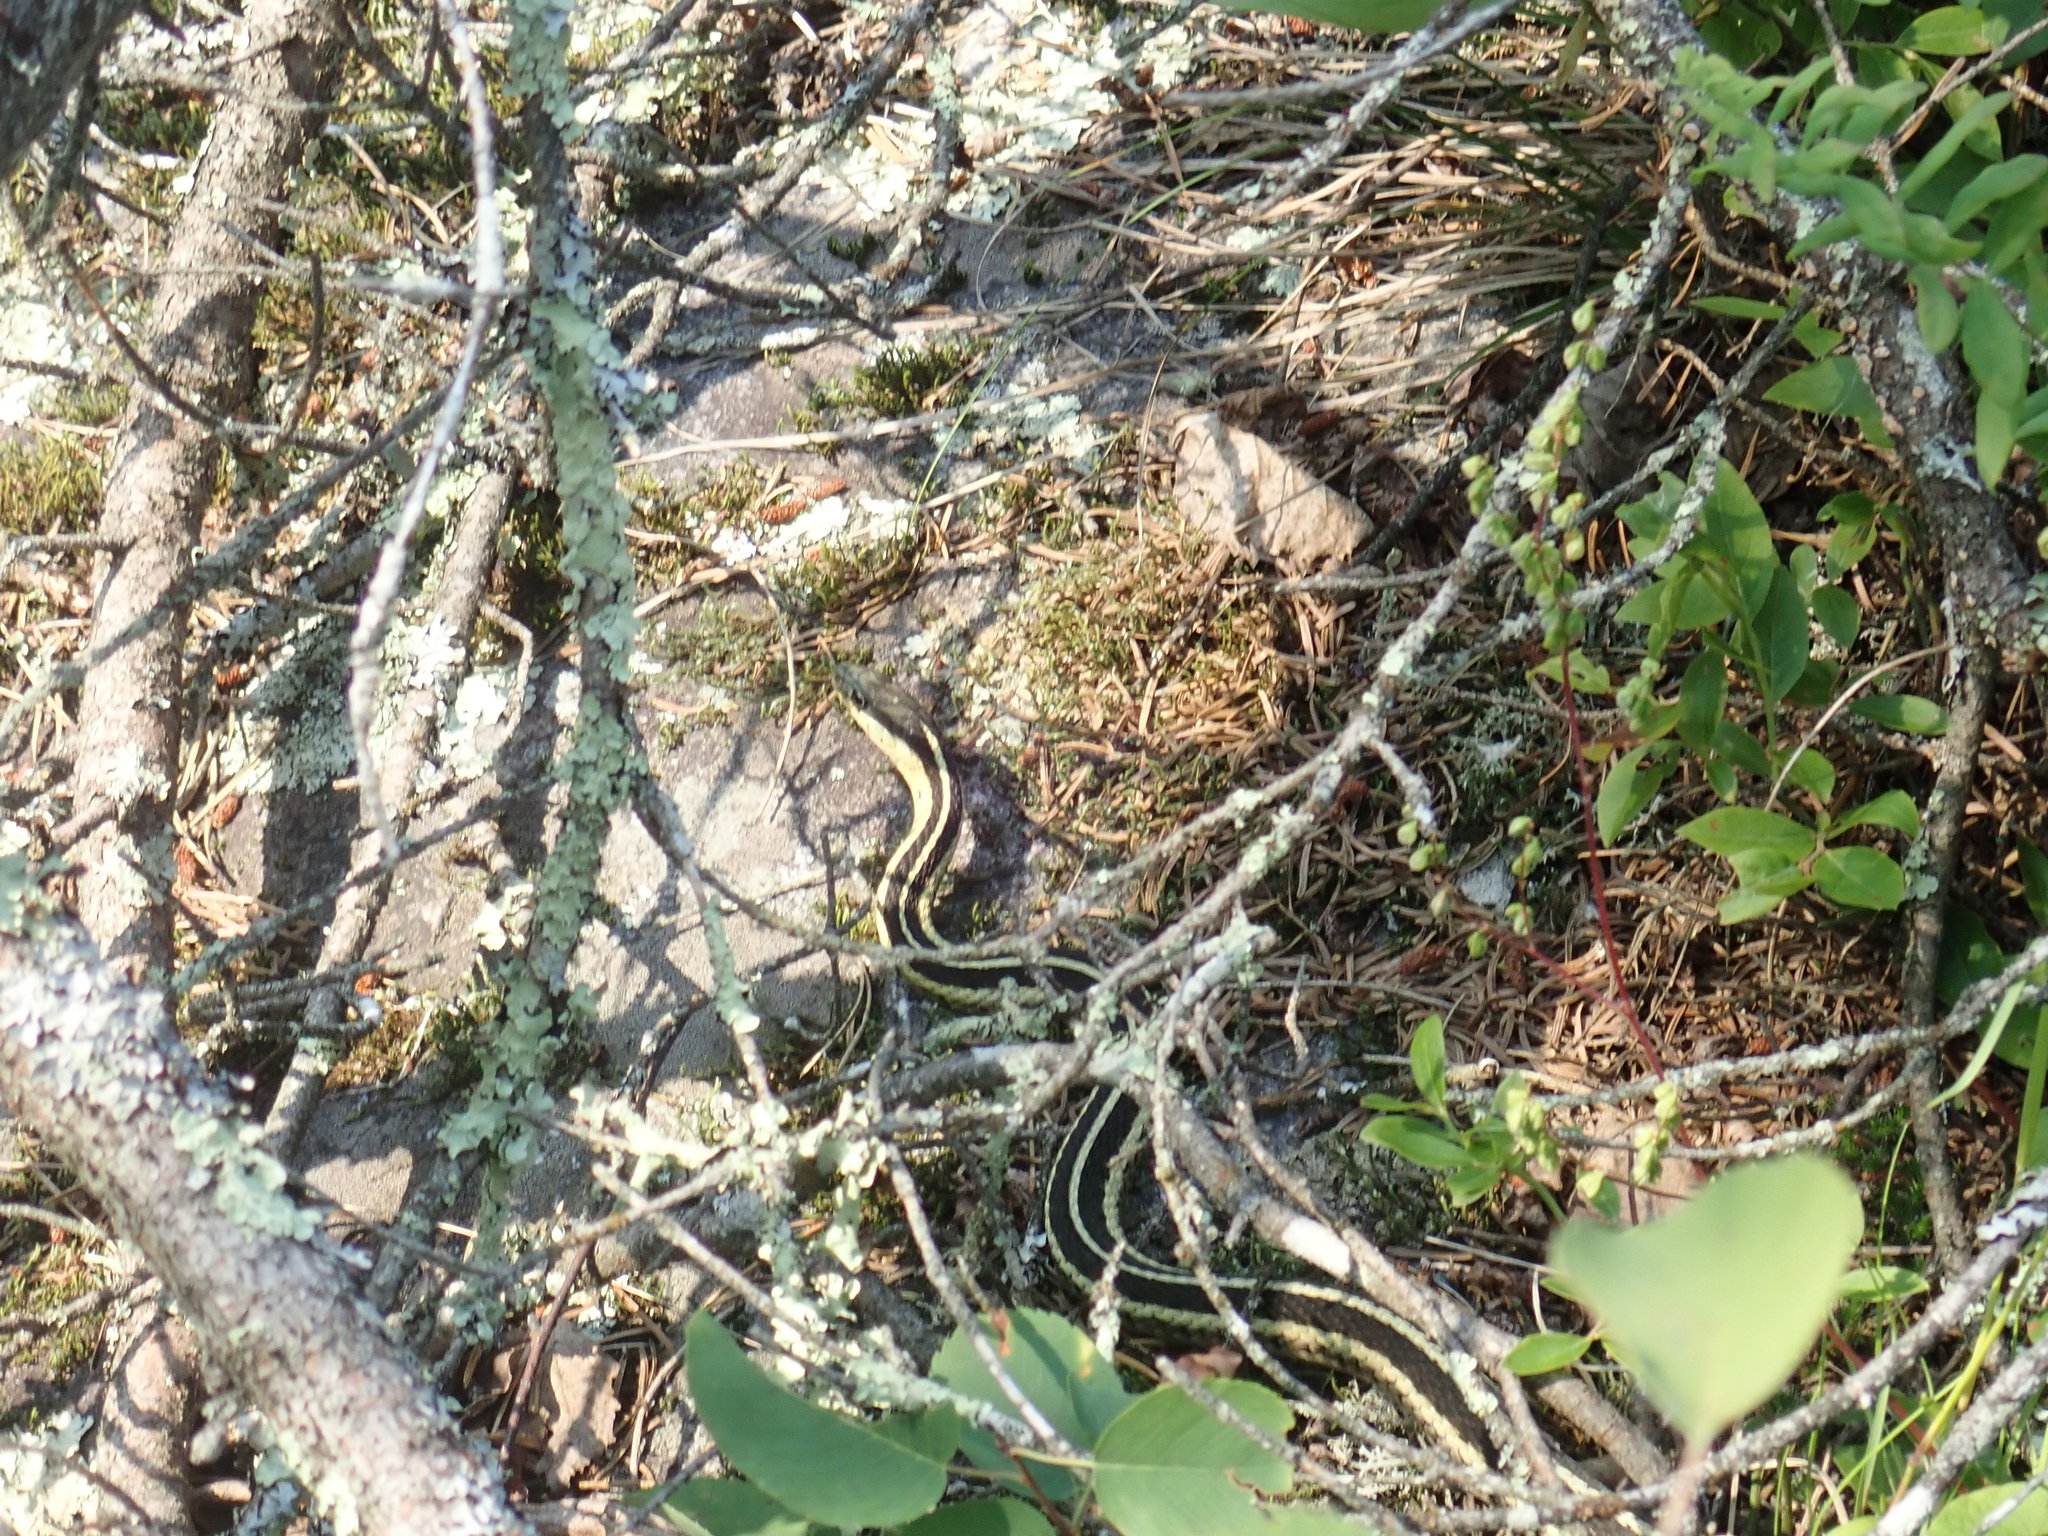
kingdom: Animalia
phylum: Chordata
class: Squamata
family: Colubridae
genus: Thamnophis
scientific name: Thamnophis sirtalis
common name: Common garter snake
